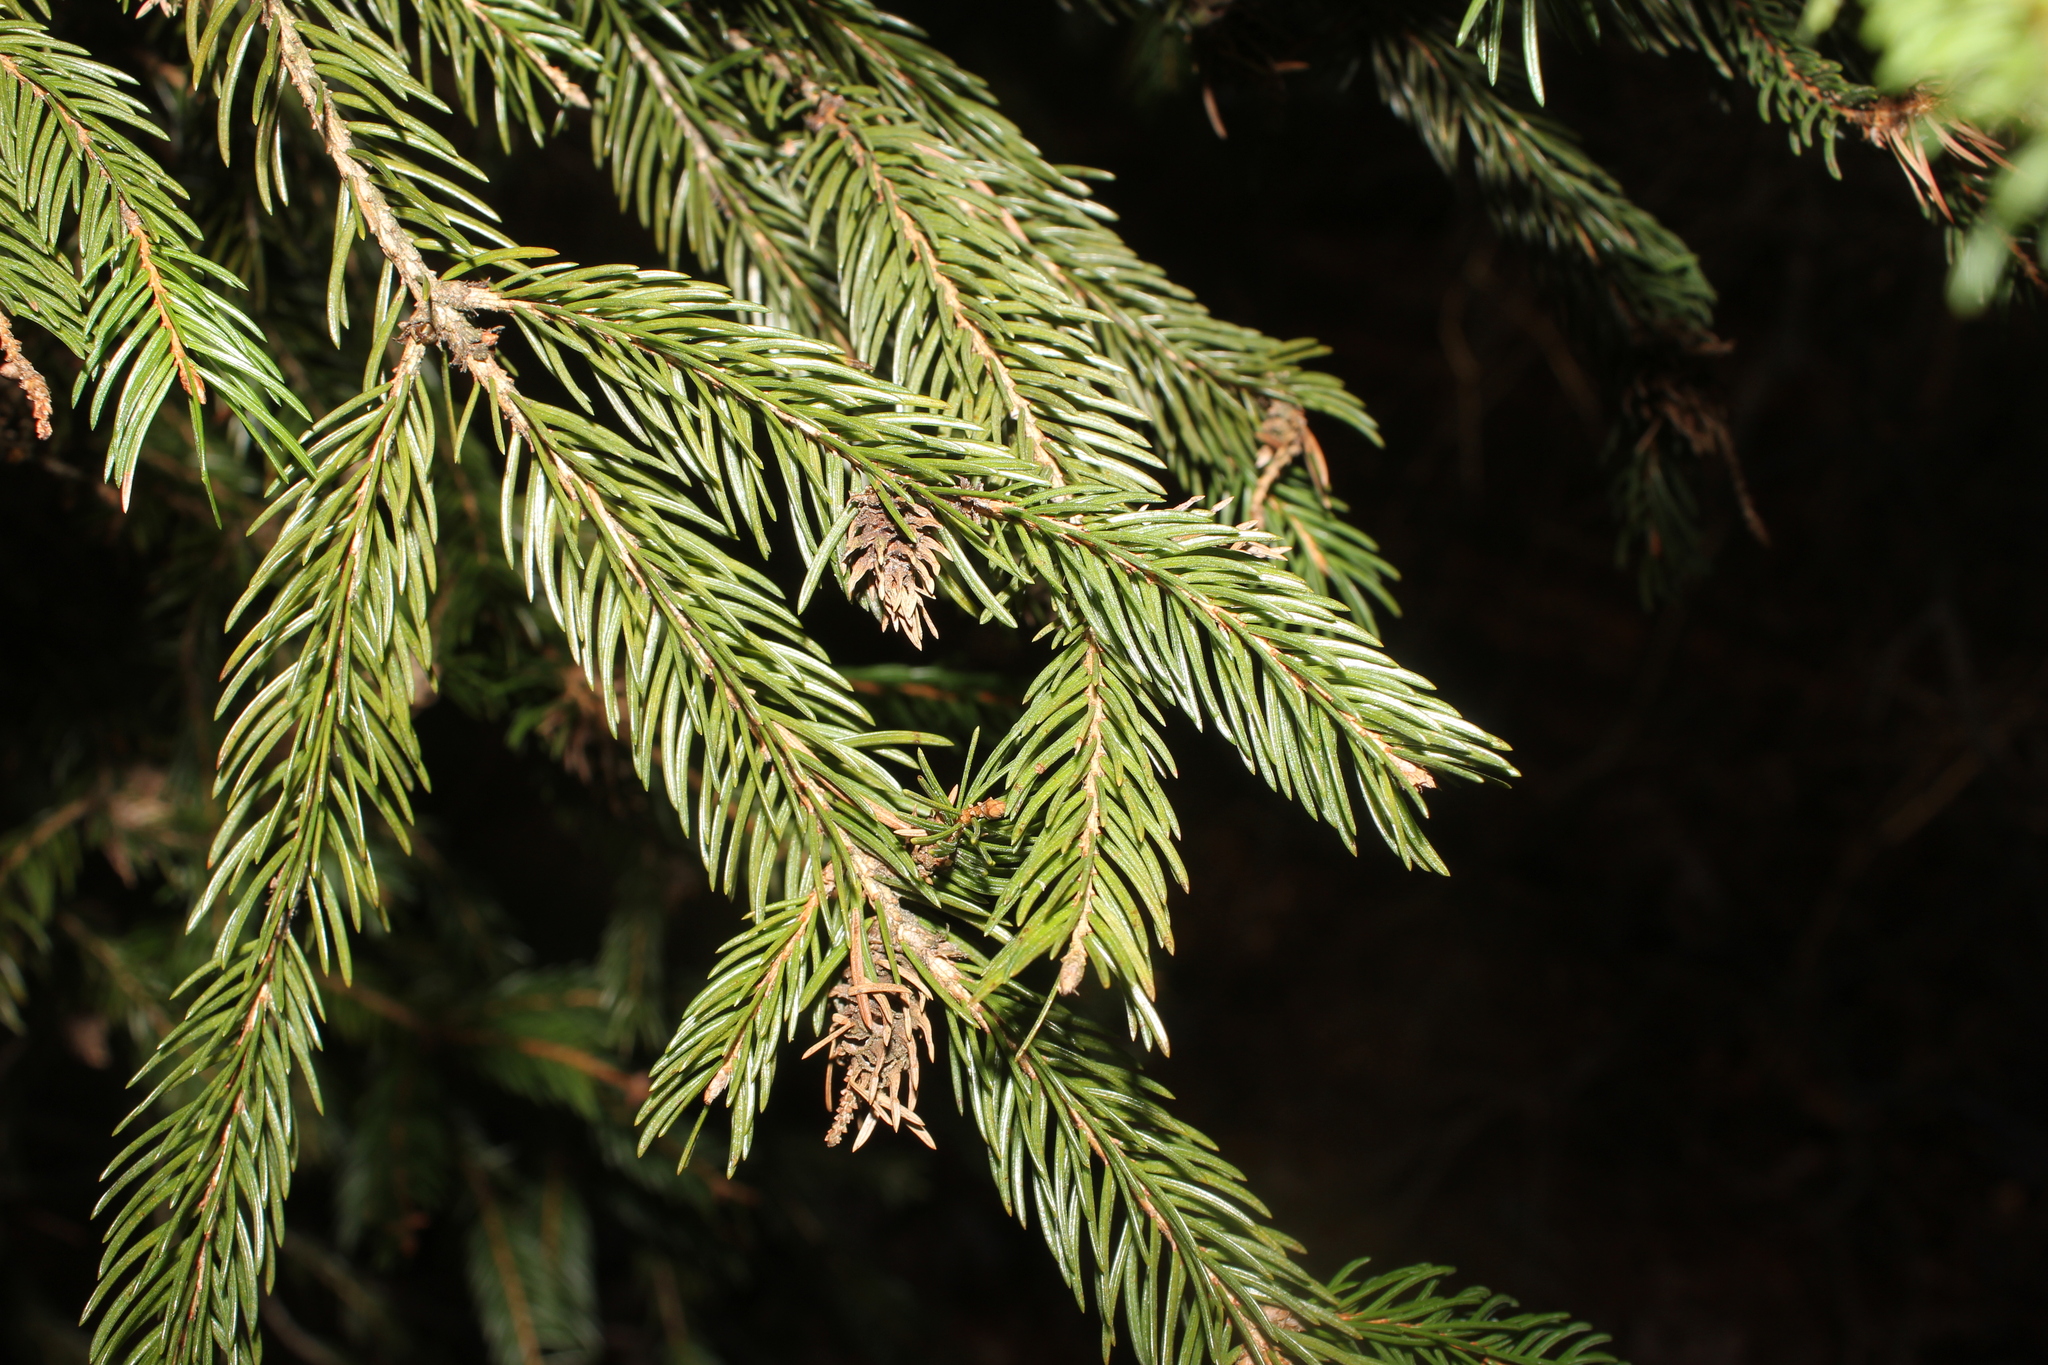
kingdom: Animalia
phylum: Arthropoda
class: Insecta
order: Hemiptera
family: Adelgidae
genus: Adelges
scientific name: Adelges abietis
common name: Eastern spruce gall adelgid
